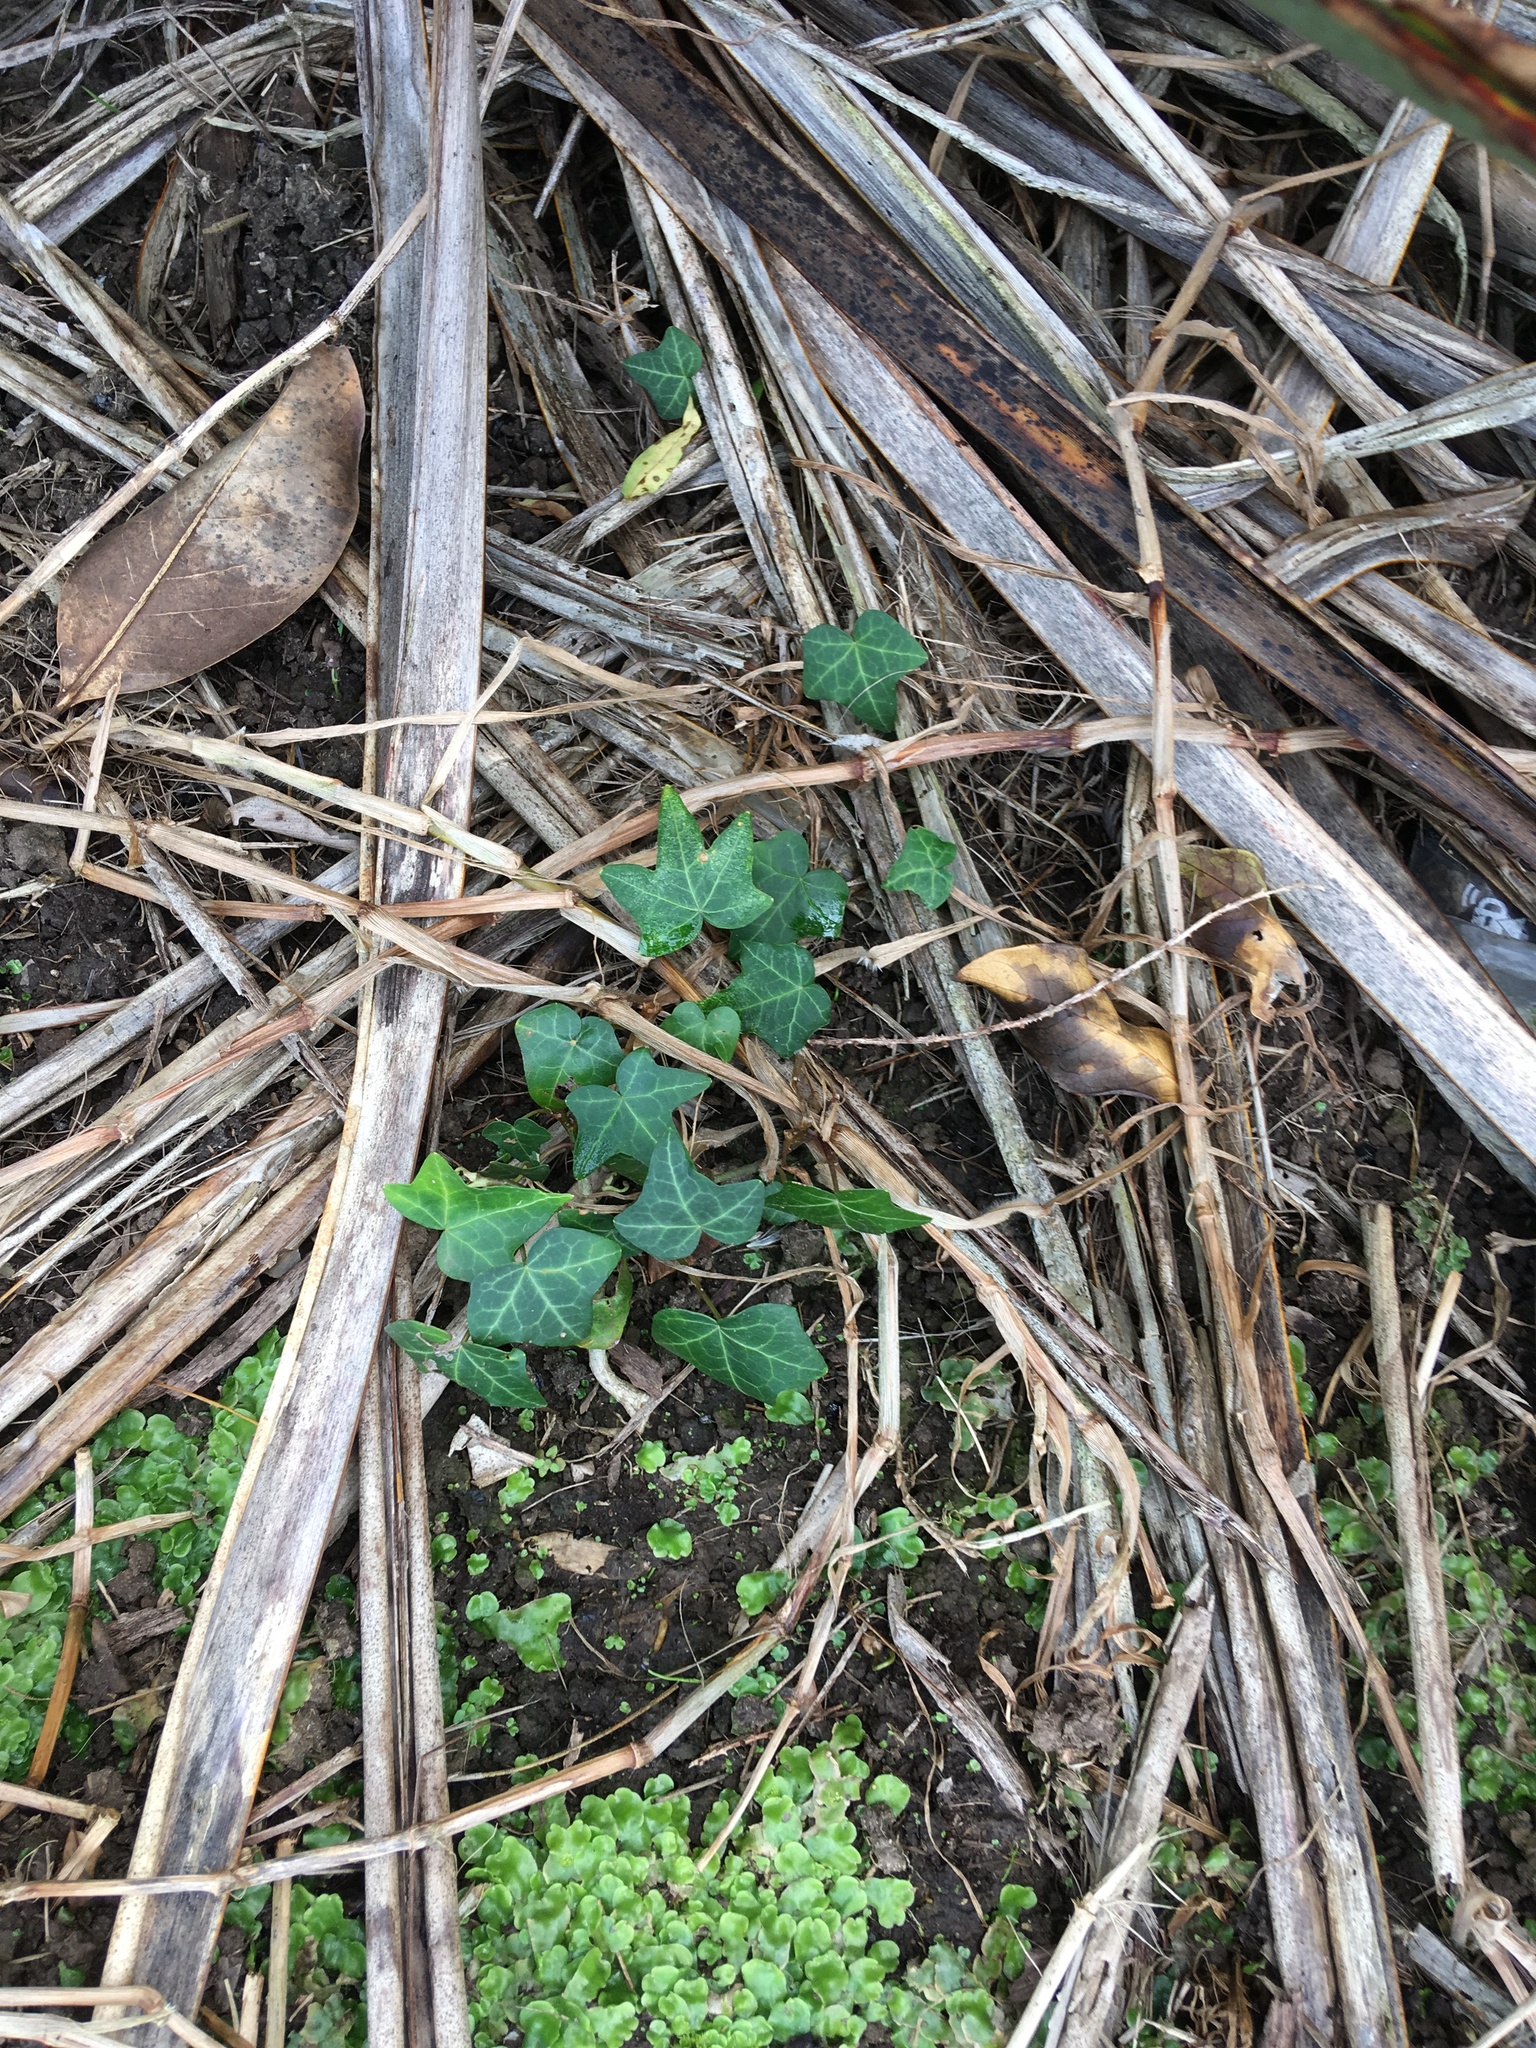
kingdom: Plantae
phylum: Tracheophyta
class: Magnoliopsida
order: Apiales
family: Araliaceae
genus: Hedera
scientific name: Hedera helix
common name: Ivy
